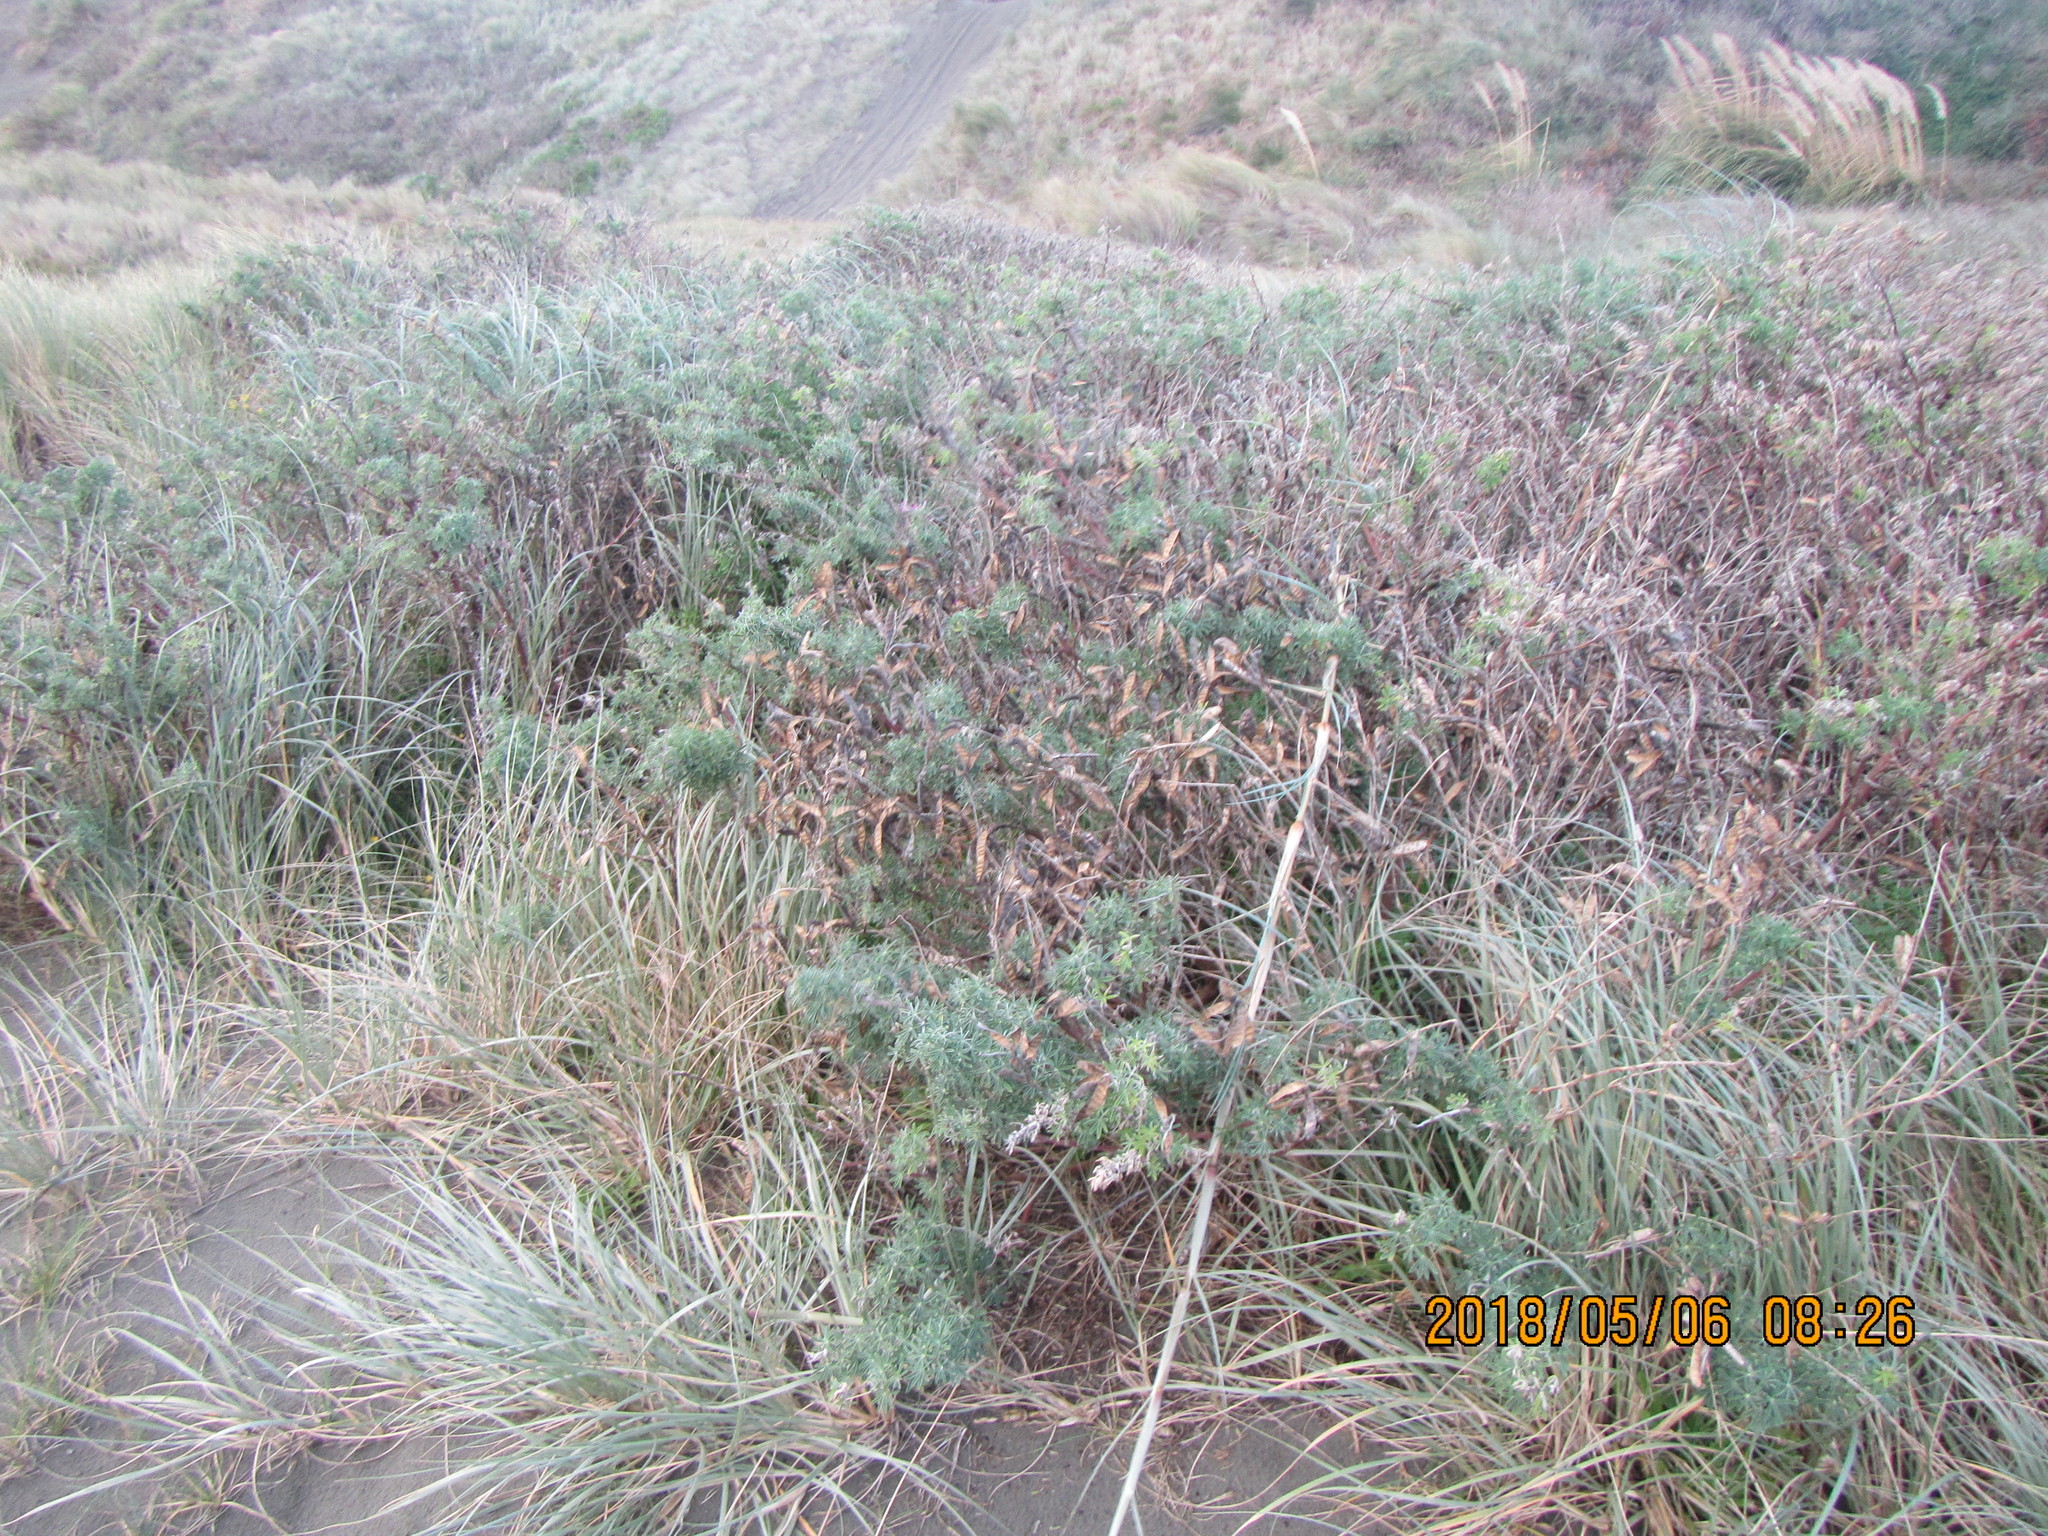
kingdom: Plantae
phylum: Tracheophyta
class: Magnoliopsida
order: Fabales
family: Fabaceae
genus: Lupinus
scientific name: Lupinus arboreus
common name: Yellow bush lupine
